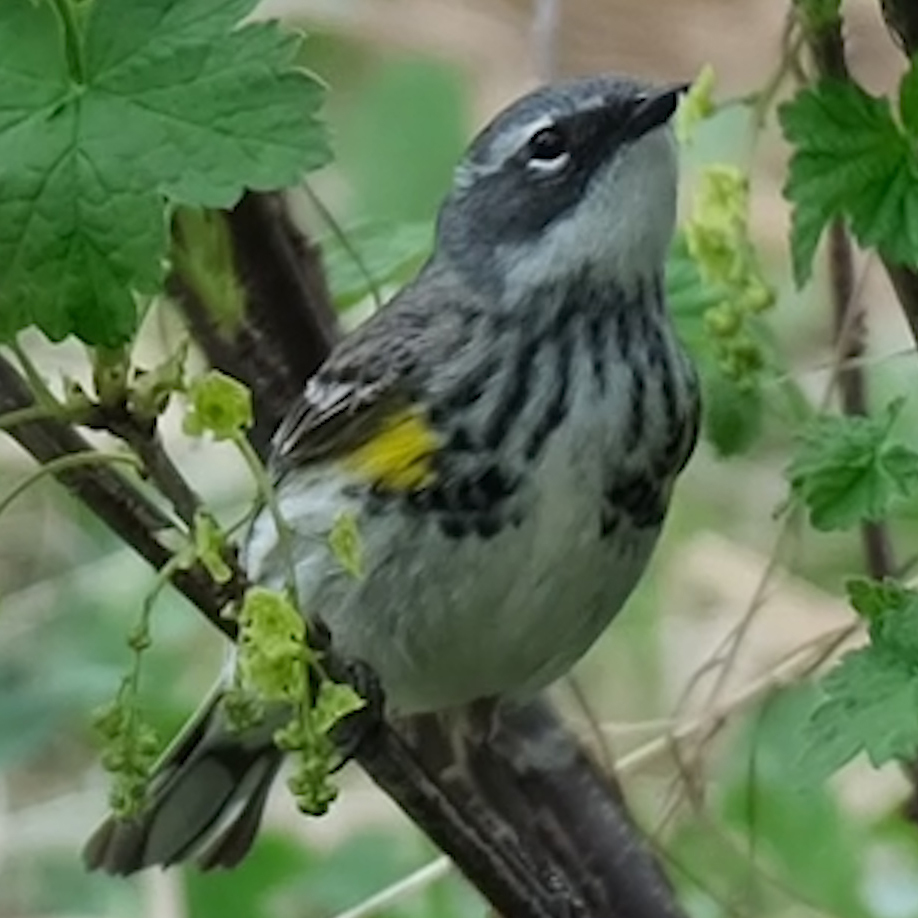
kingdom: Animalia
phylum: Chordata
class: Aves
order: Passeriformes
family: Parulidae
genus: Setophaga
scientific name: Setophaga coronata
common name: Myrtle warbler
